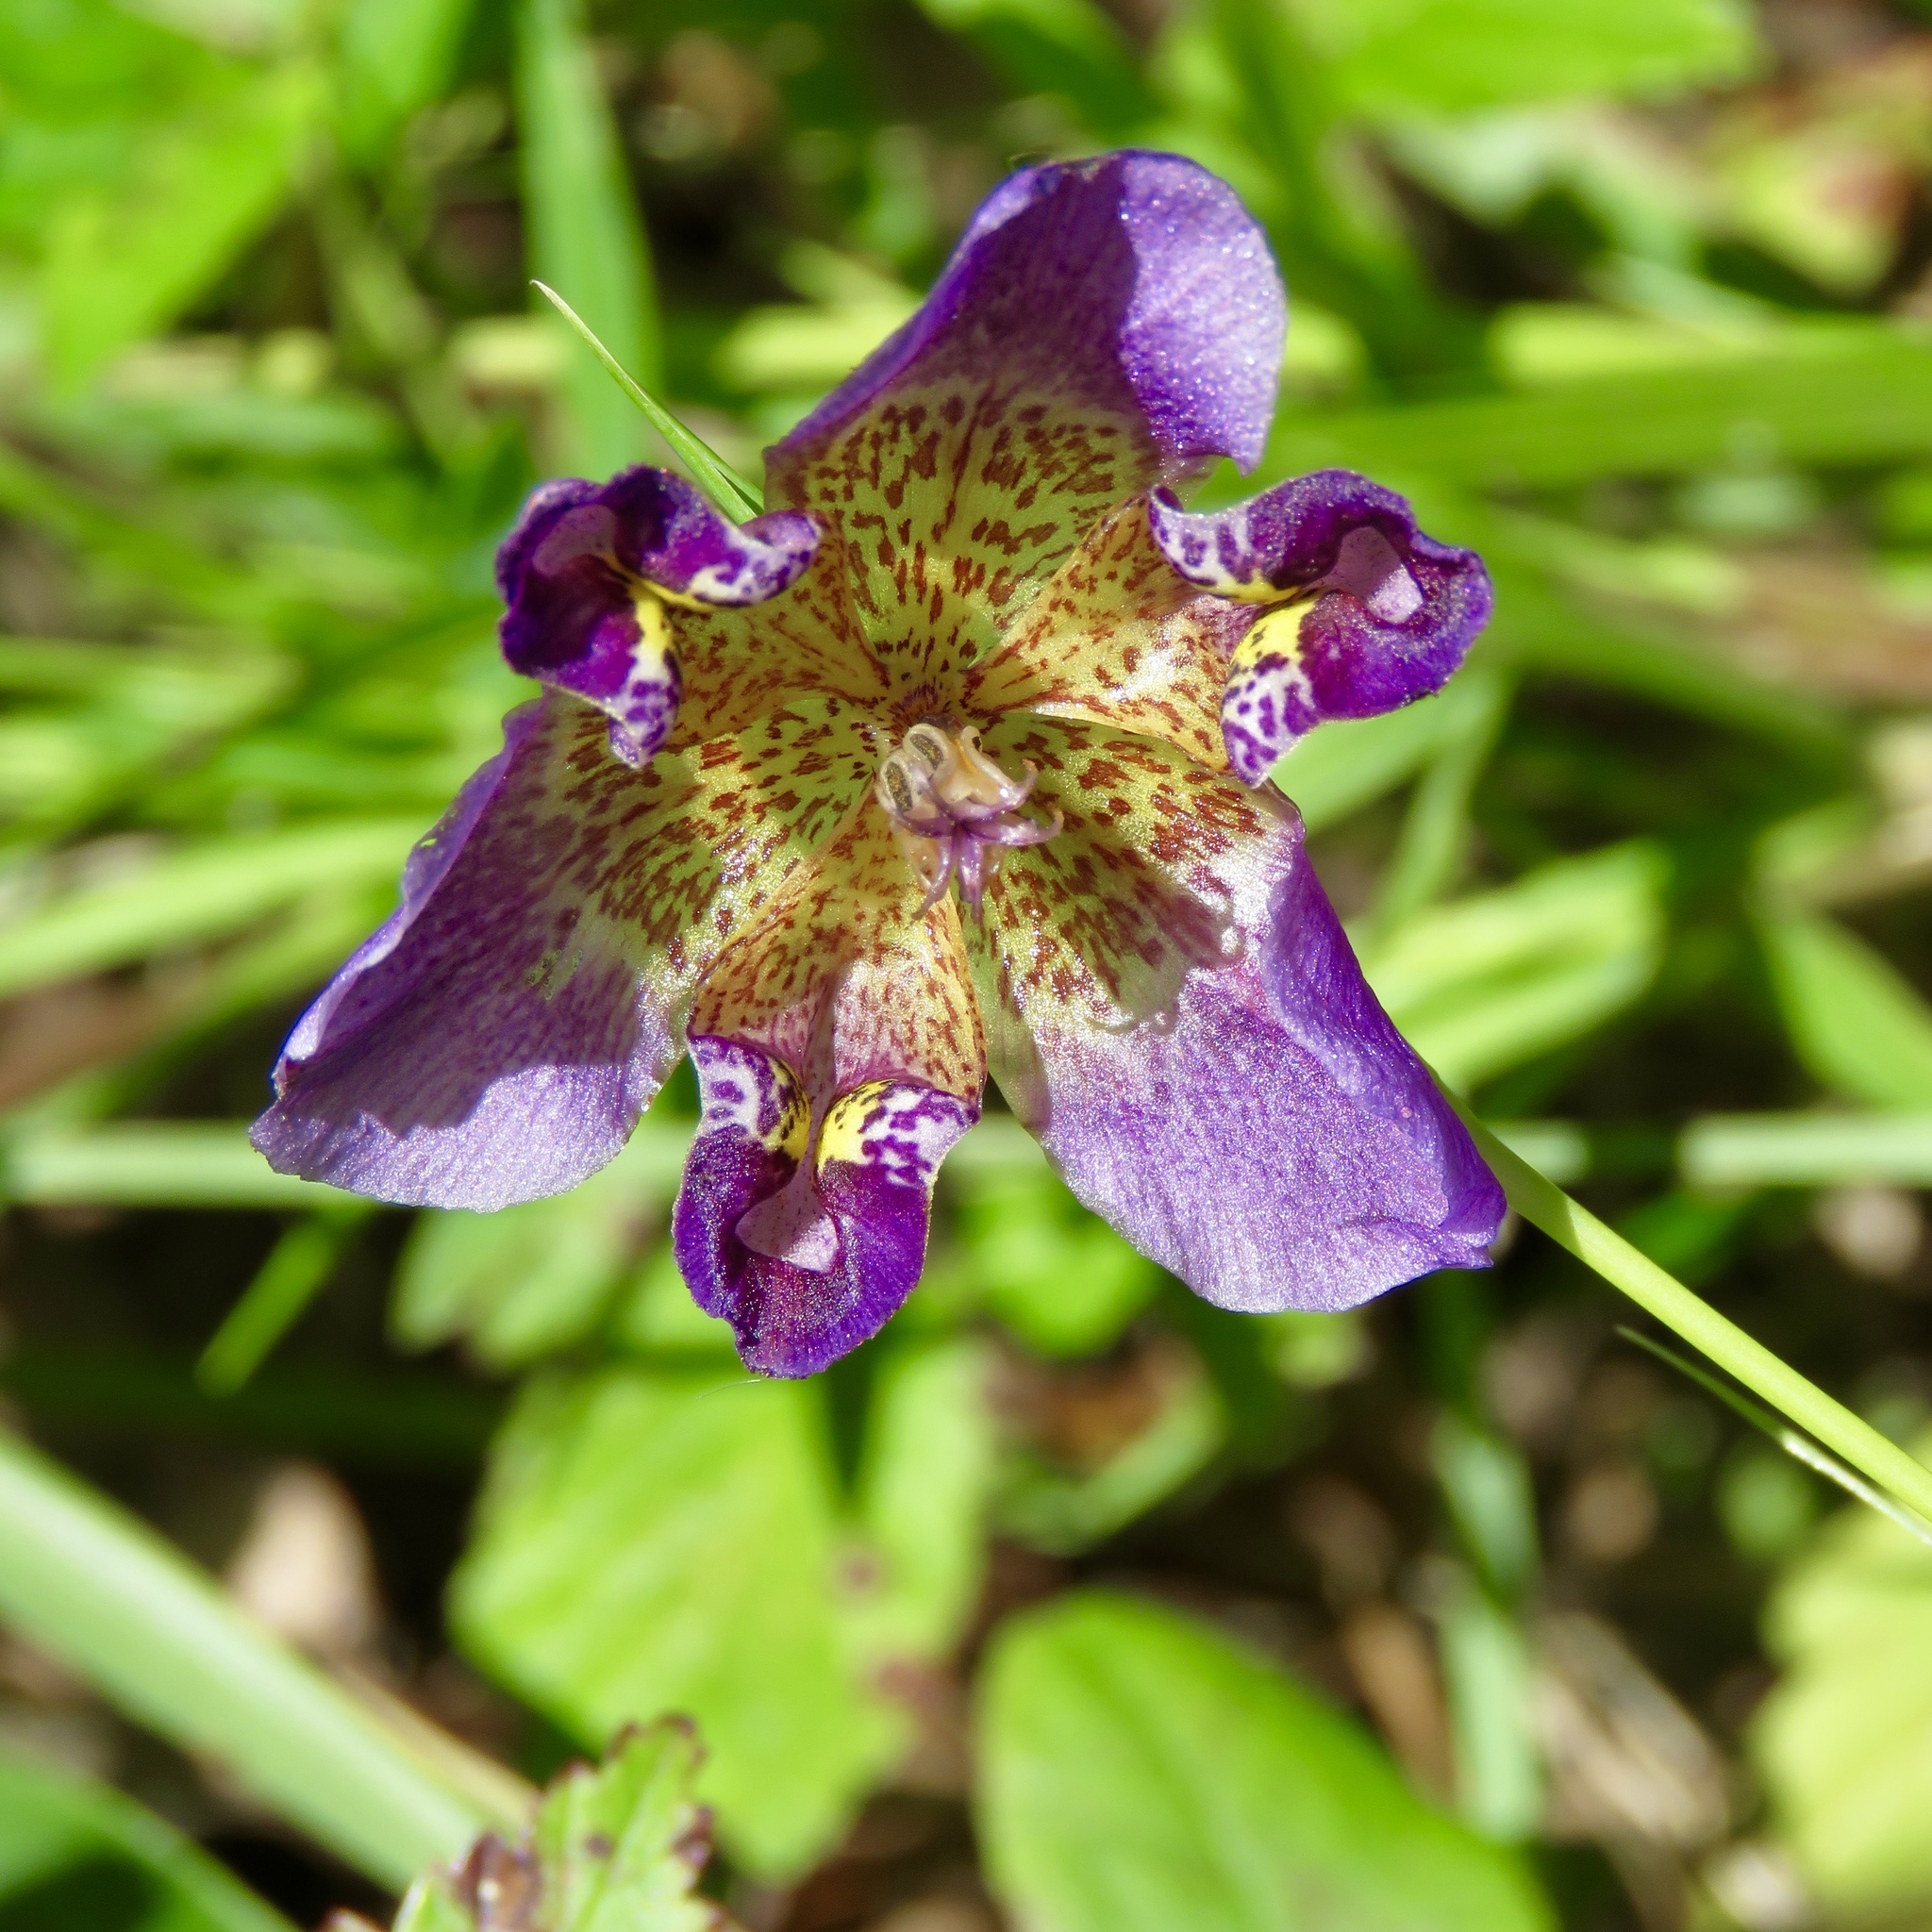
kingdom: Plantae
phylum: Tracheophyta
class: Liliopsida
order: Asparagales
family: Iridaceae
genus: Alophia
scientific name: Alophia drummondii
